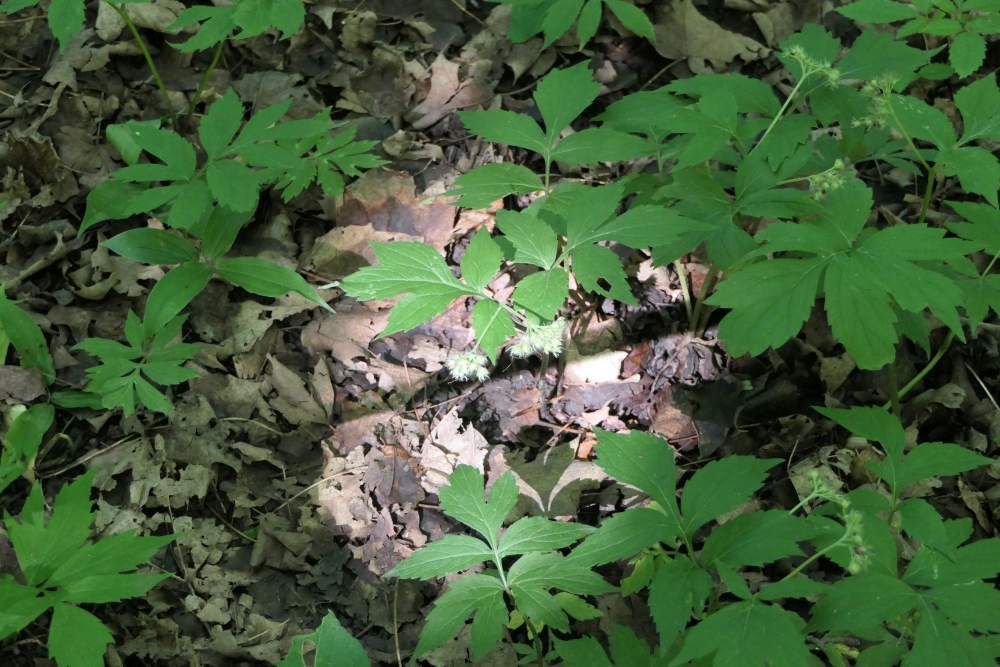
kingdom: Plantae
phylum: Tracheophyta
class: Magnoliopsida
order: Boraginales
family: Hydrophyllaceae
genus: Hydrophyllum
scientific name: Hydrophyllum virginianum
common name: Virginia waterleaf
